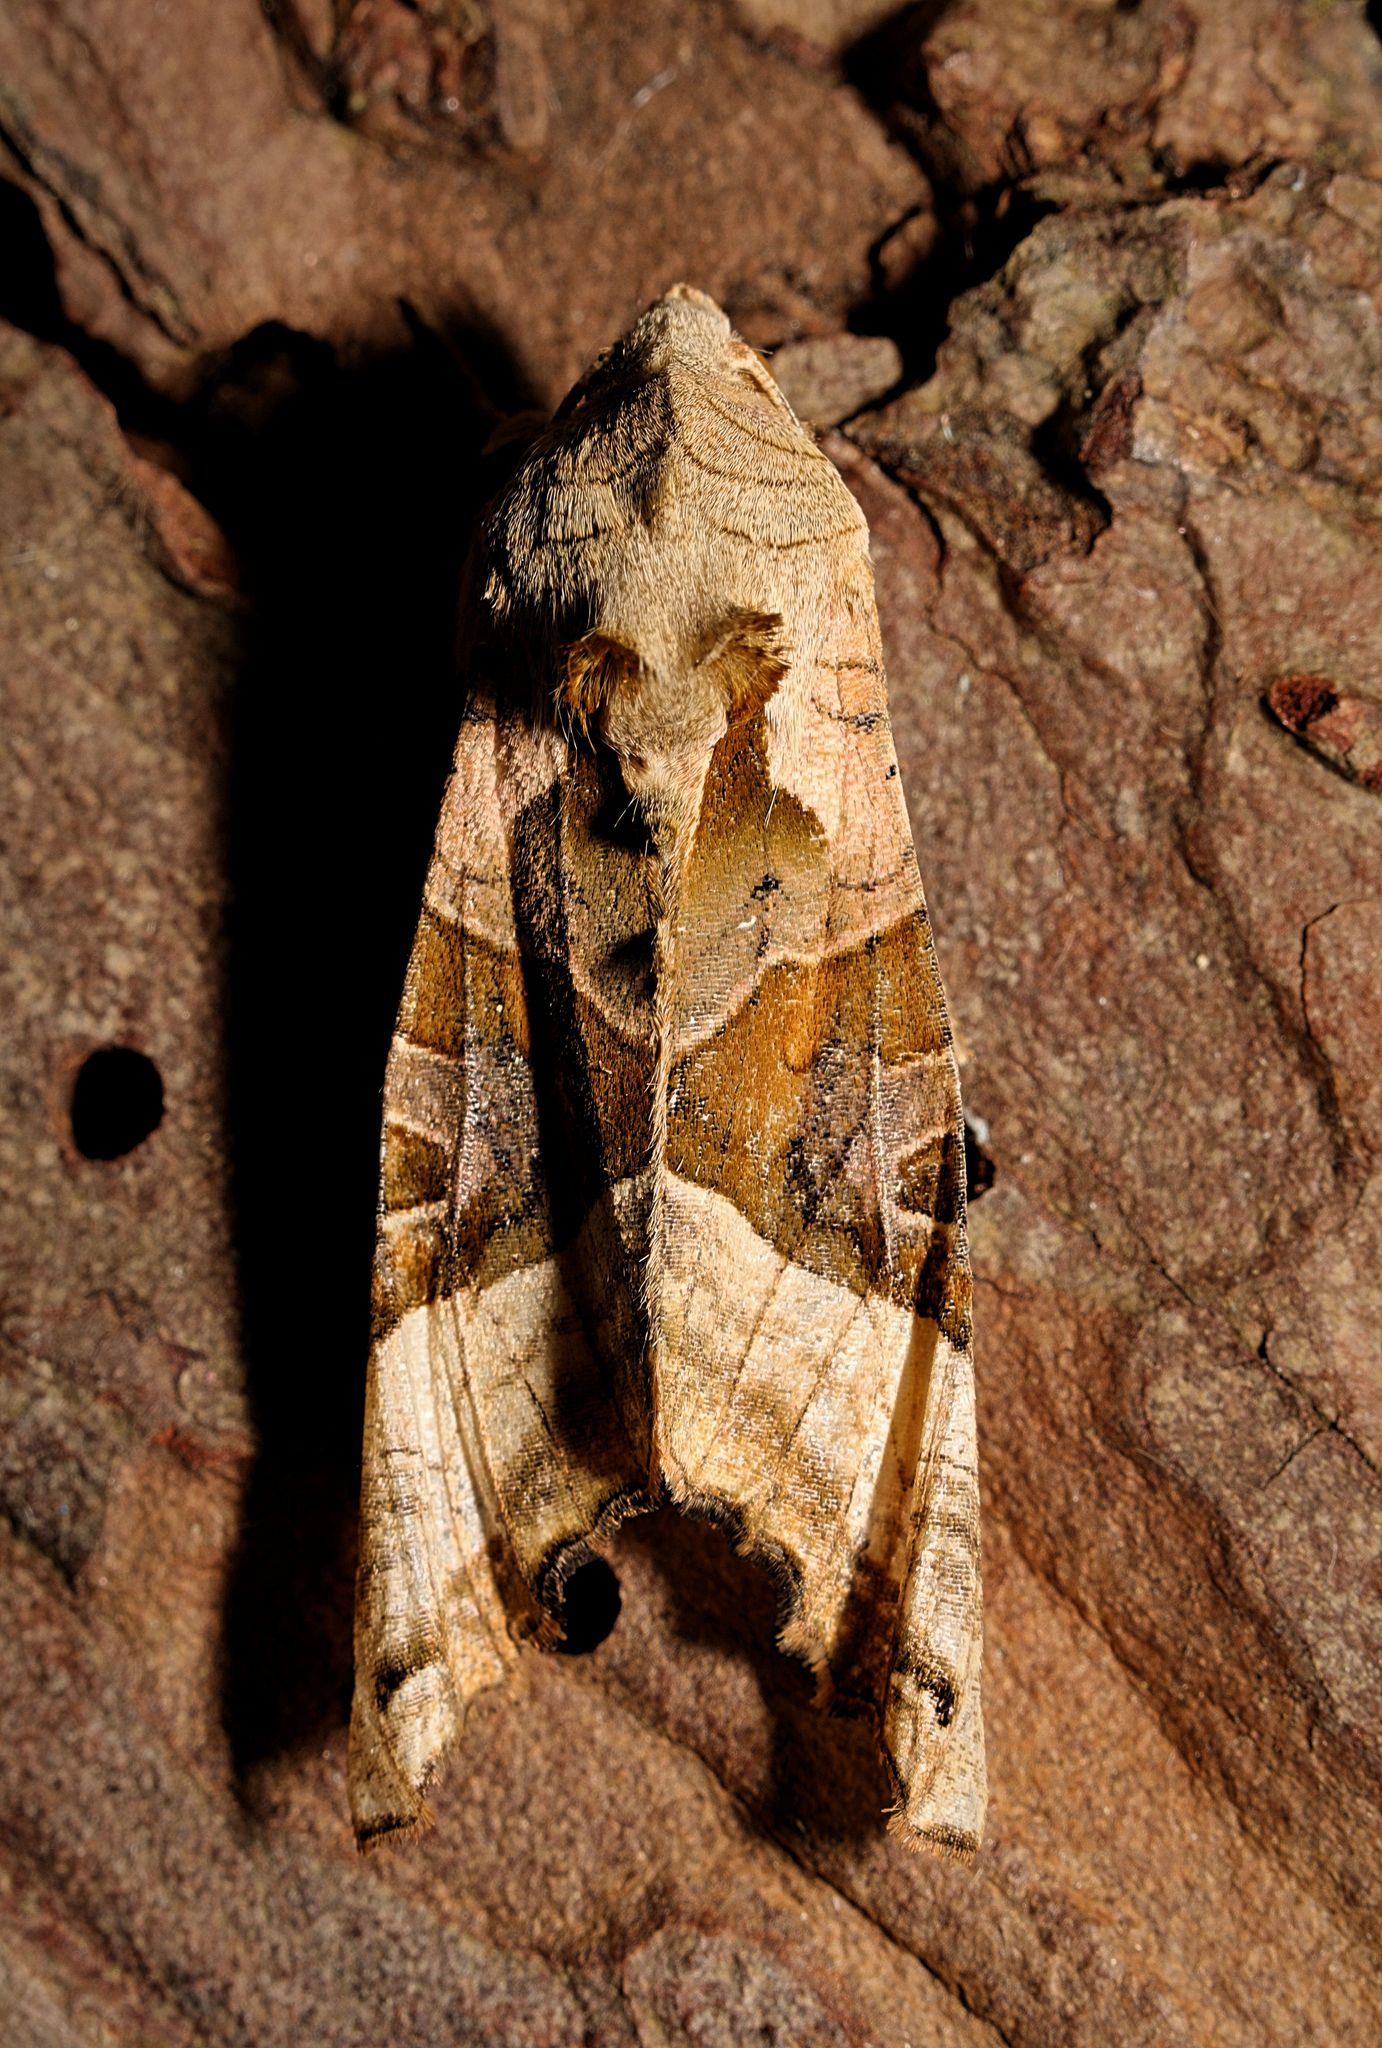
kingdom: Animalia
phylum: Arthropoda
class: Insecta
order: Lepidoptera
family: Noctuidae
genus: Phlogophora
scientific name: Phlogophora meticulosa
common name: Angle shades
